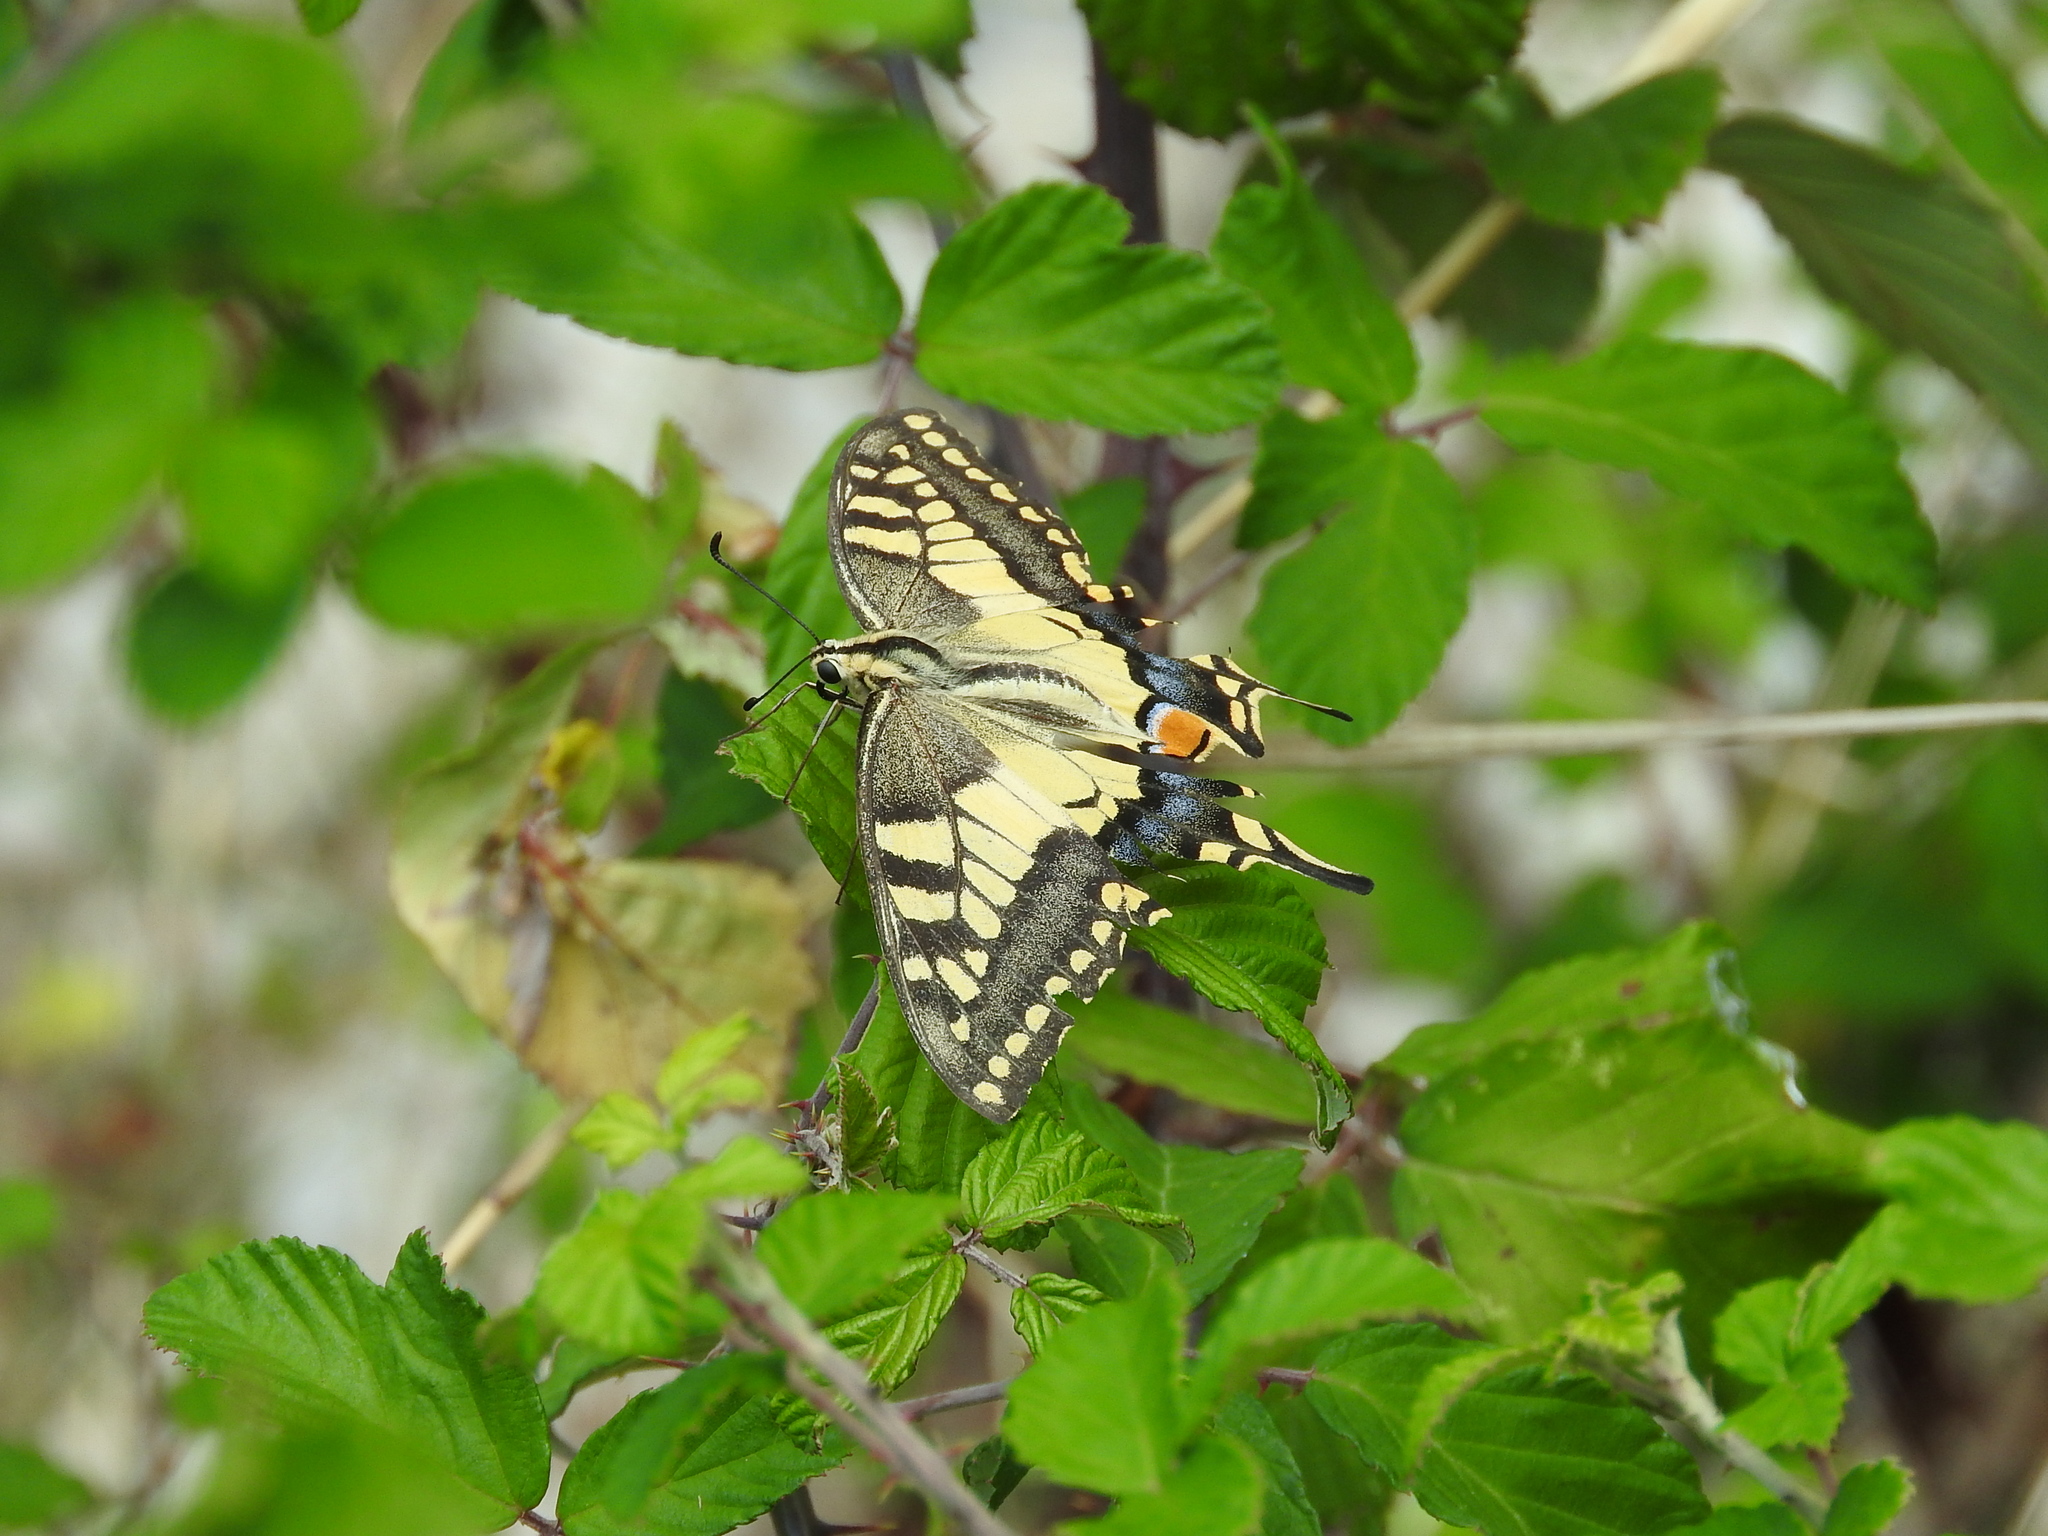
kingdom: Animalia
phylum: Arthropoda
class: Insecta
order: Lepidoptera
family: Papilionidae
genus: Papilio
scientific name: Papilio machaon
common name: Swallowtail
